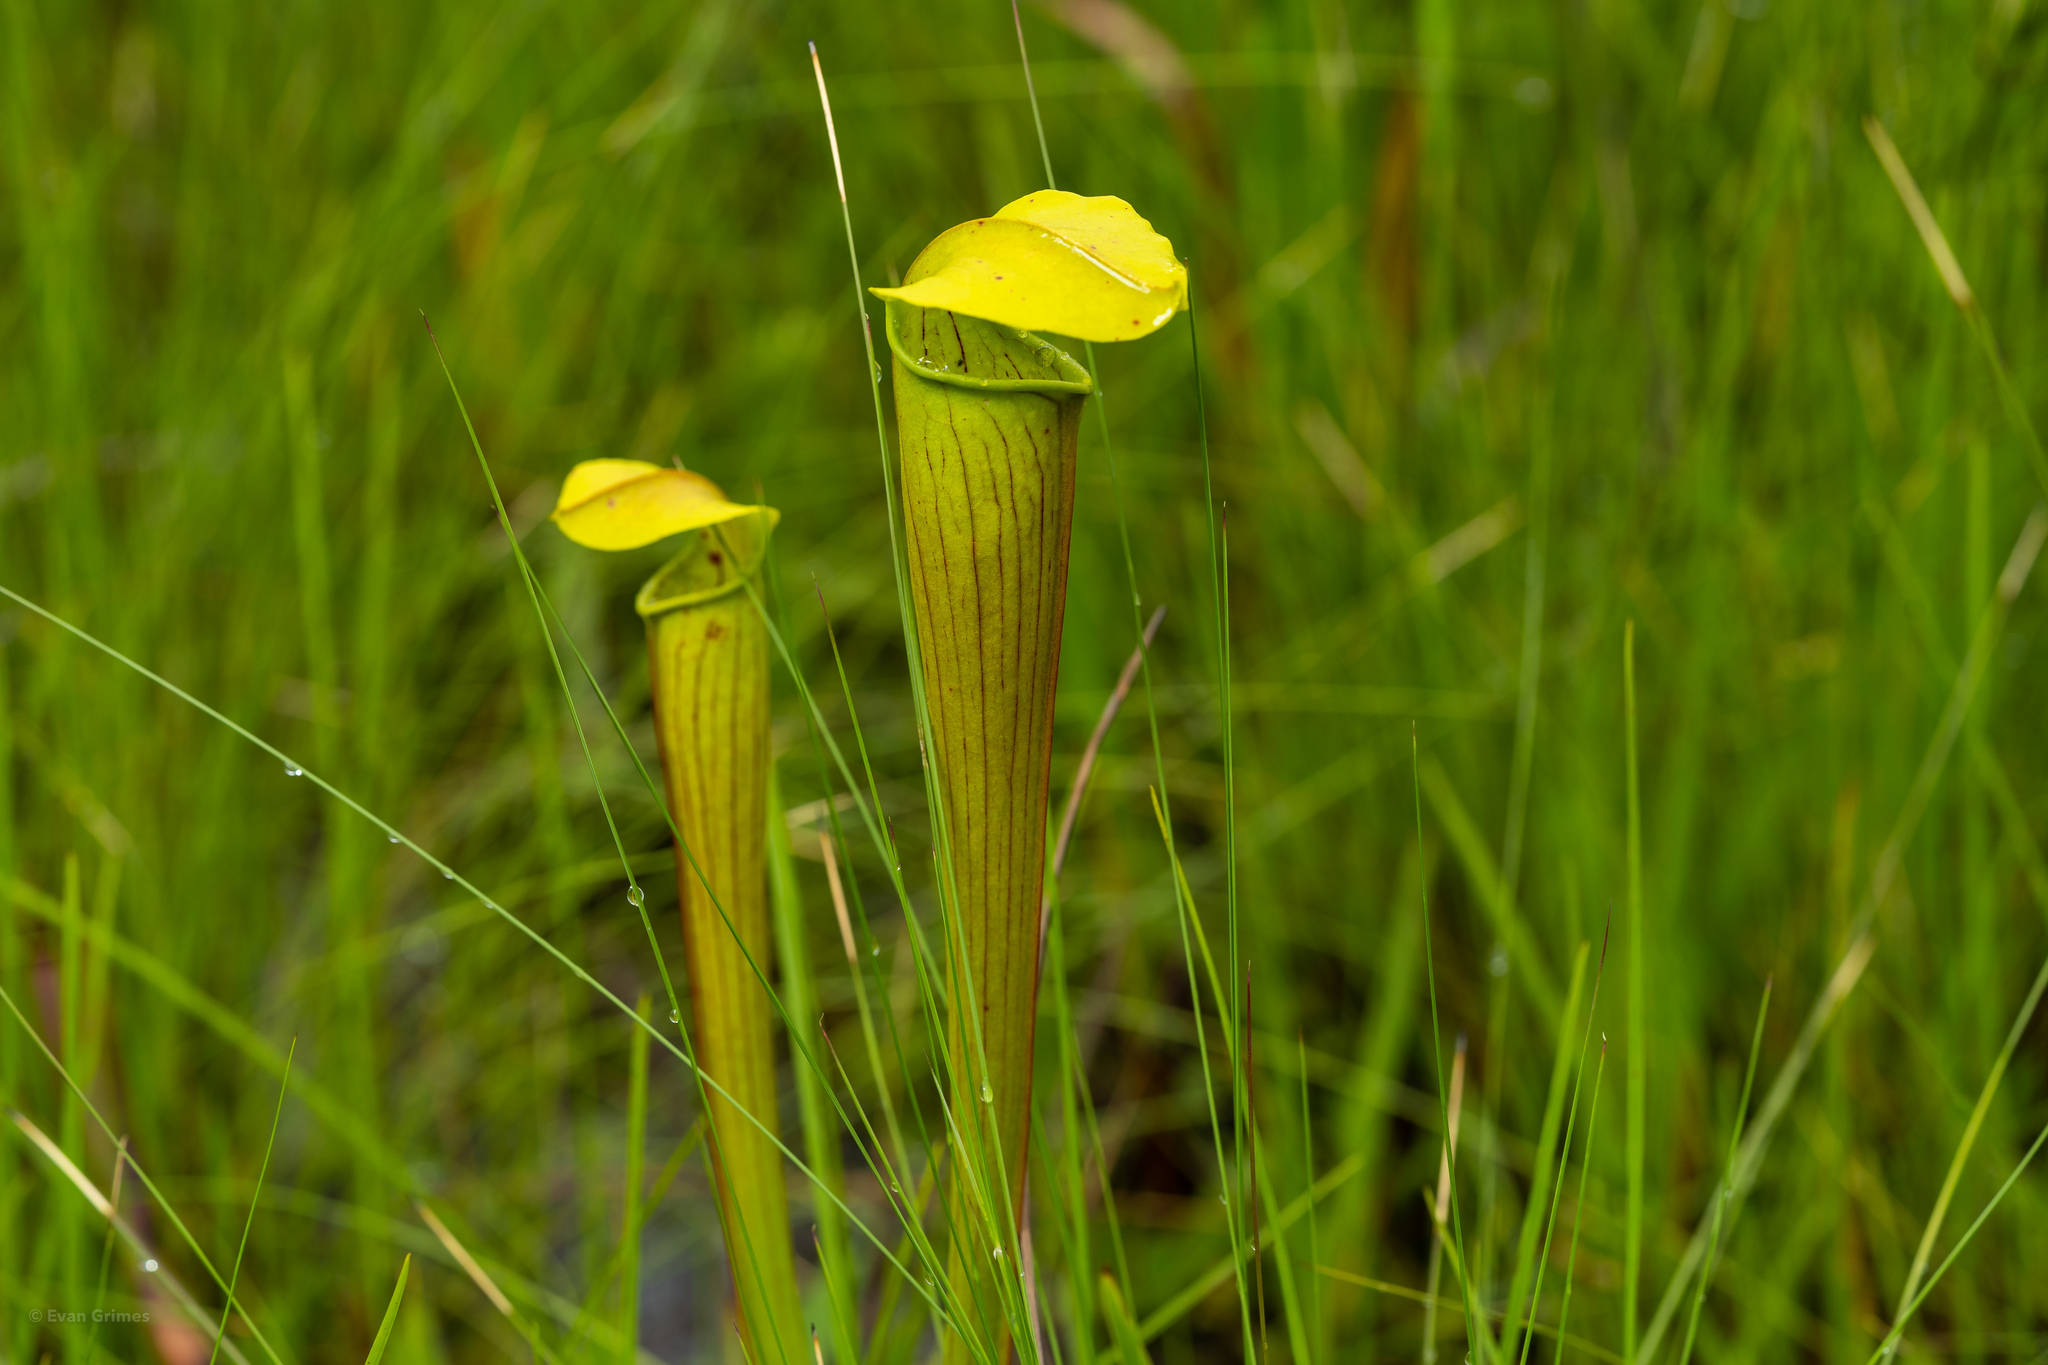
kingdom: Plantae
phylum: Tracheophyta
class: Magnoliopsida
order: Ericales
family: Sarraceniaceae
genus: Sarracenia
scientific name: Sarracenia alata
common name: Yellow trumpets
